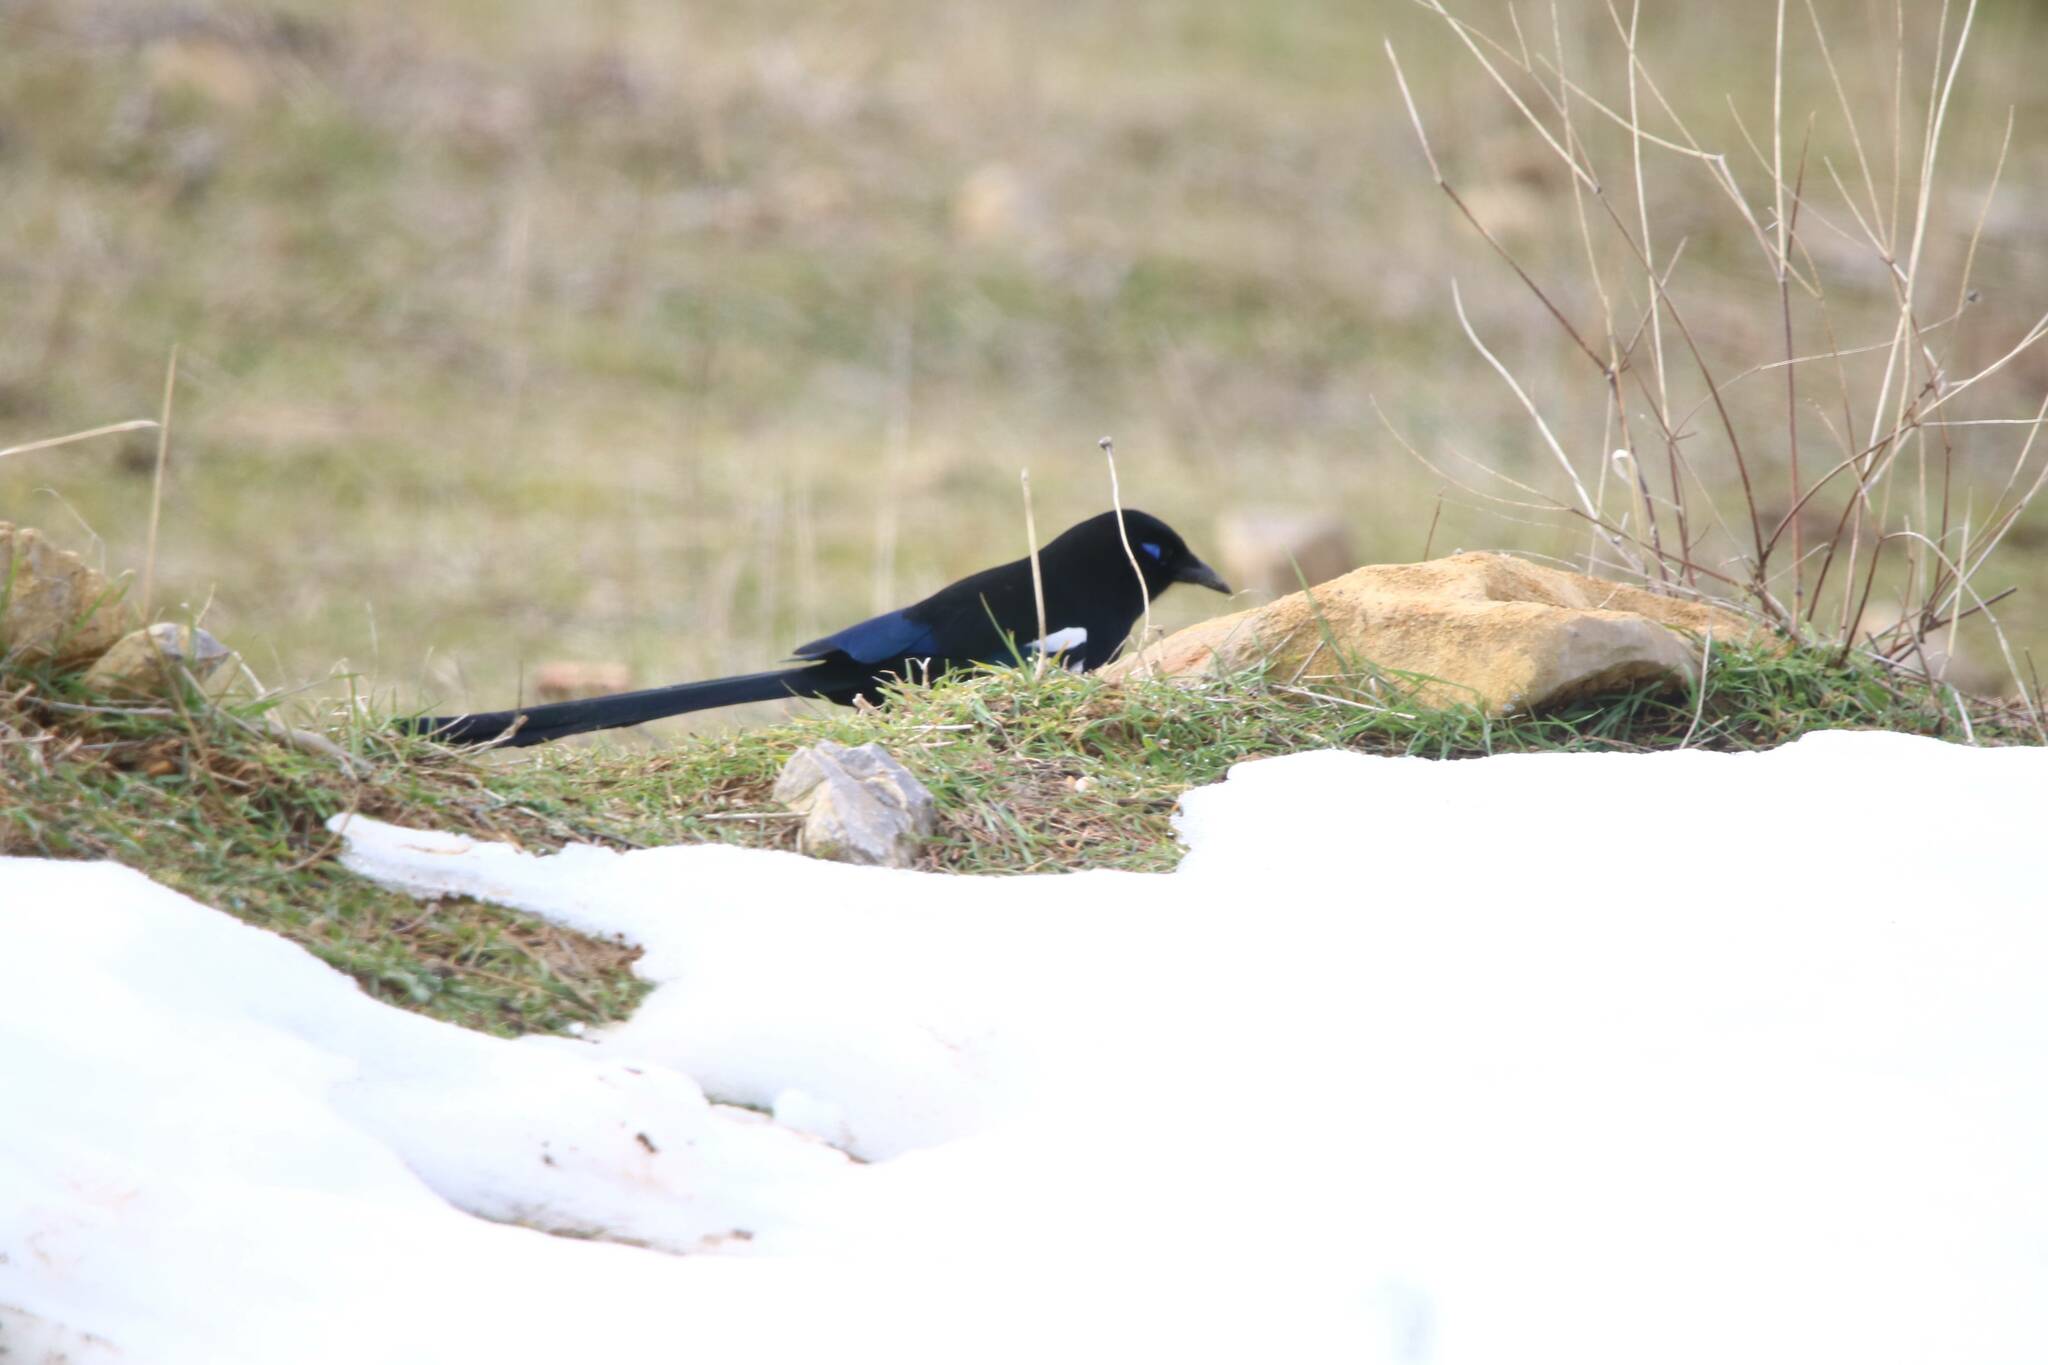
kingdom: Animalia
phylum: Chordata
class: Aves
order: Passeriformes
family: Corvidae
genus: Pica
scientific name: Pica mauritanica
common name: Maghreb magpie
